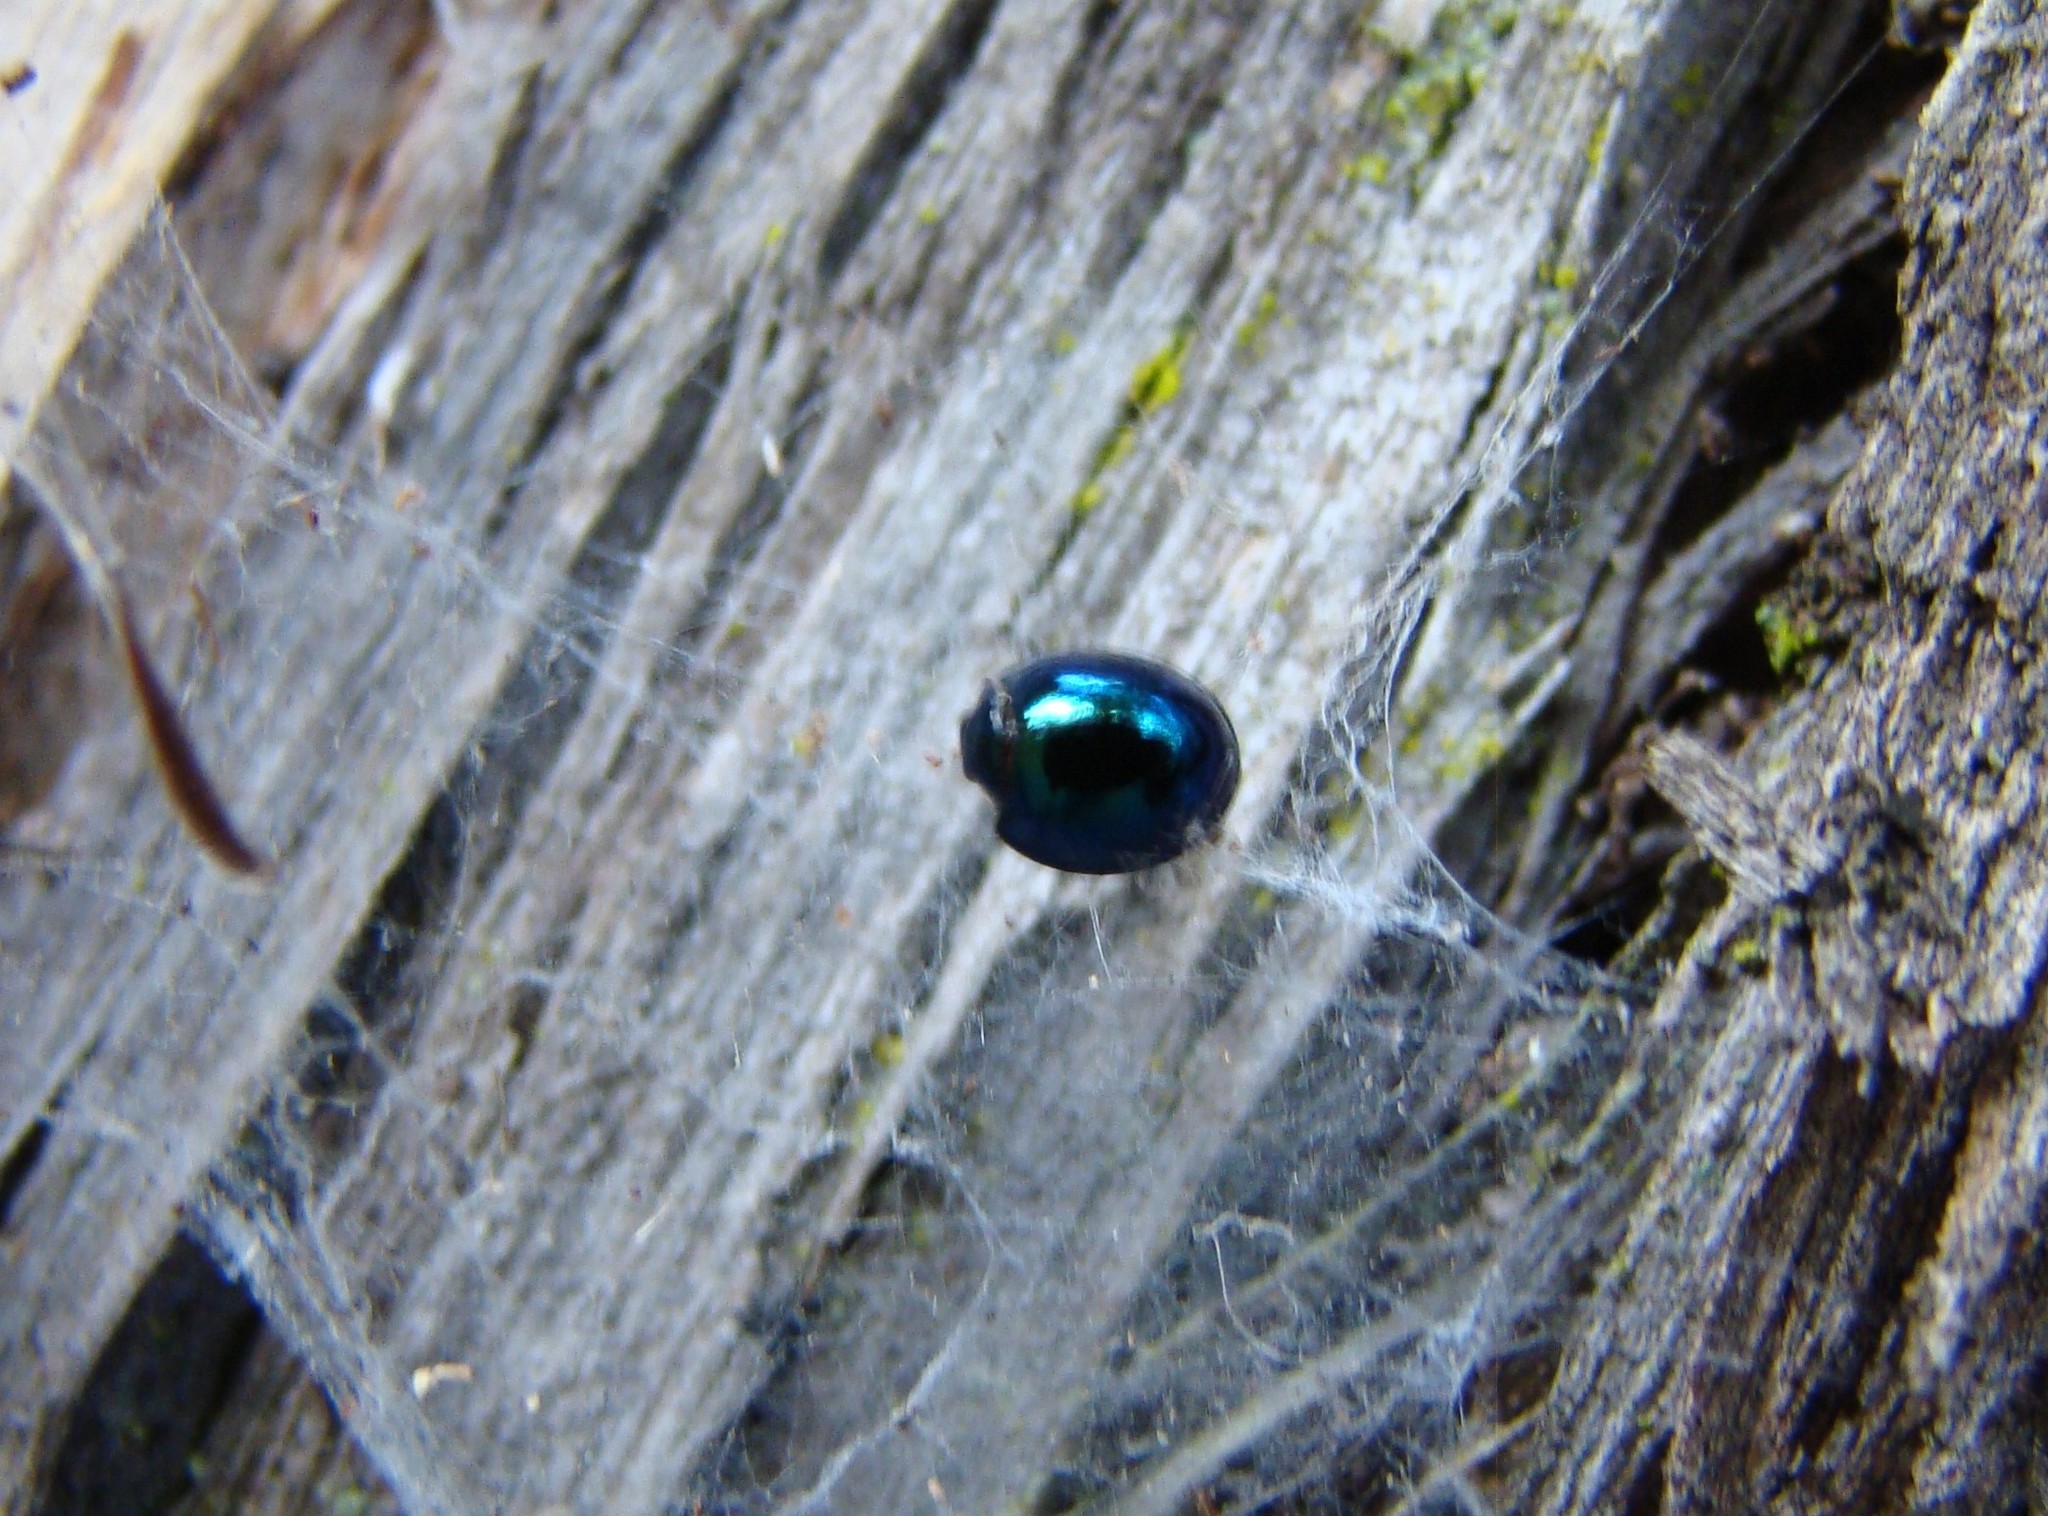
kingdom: Animalia
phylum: Arthropoda
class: Insecta
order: Coleoptera
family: Coccinellidae
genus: Halmus
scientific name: Halmus chalybeus
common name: Steel blue ladybird beetle
